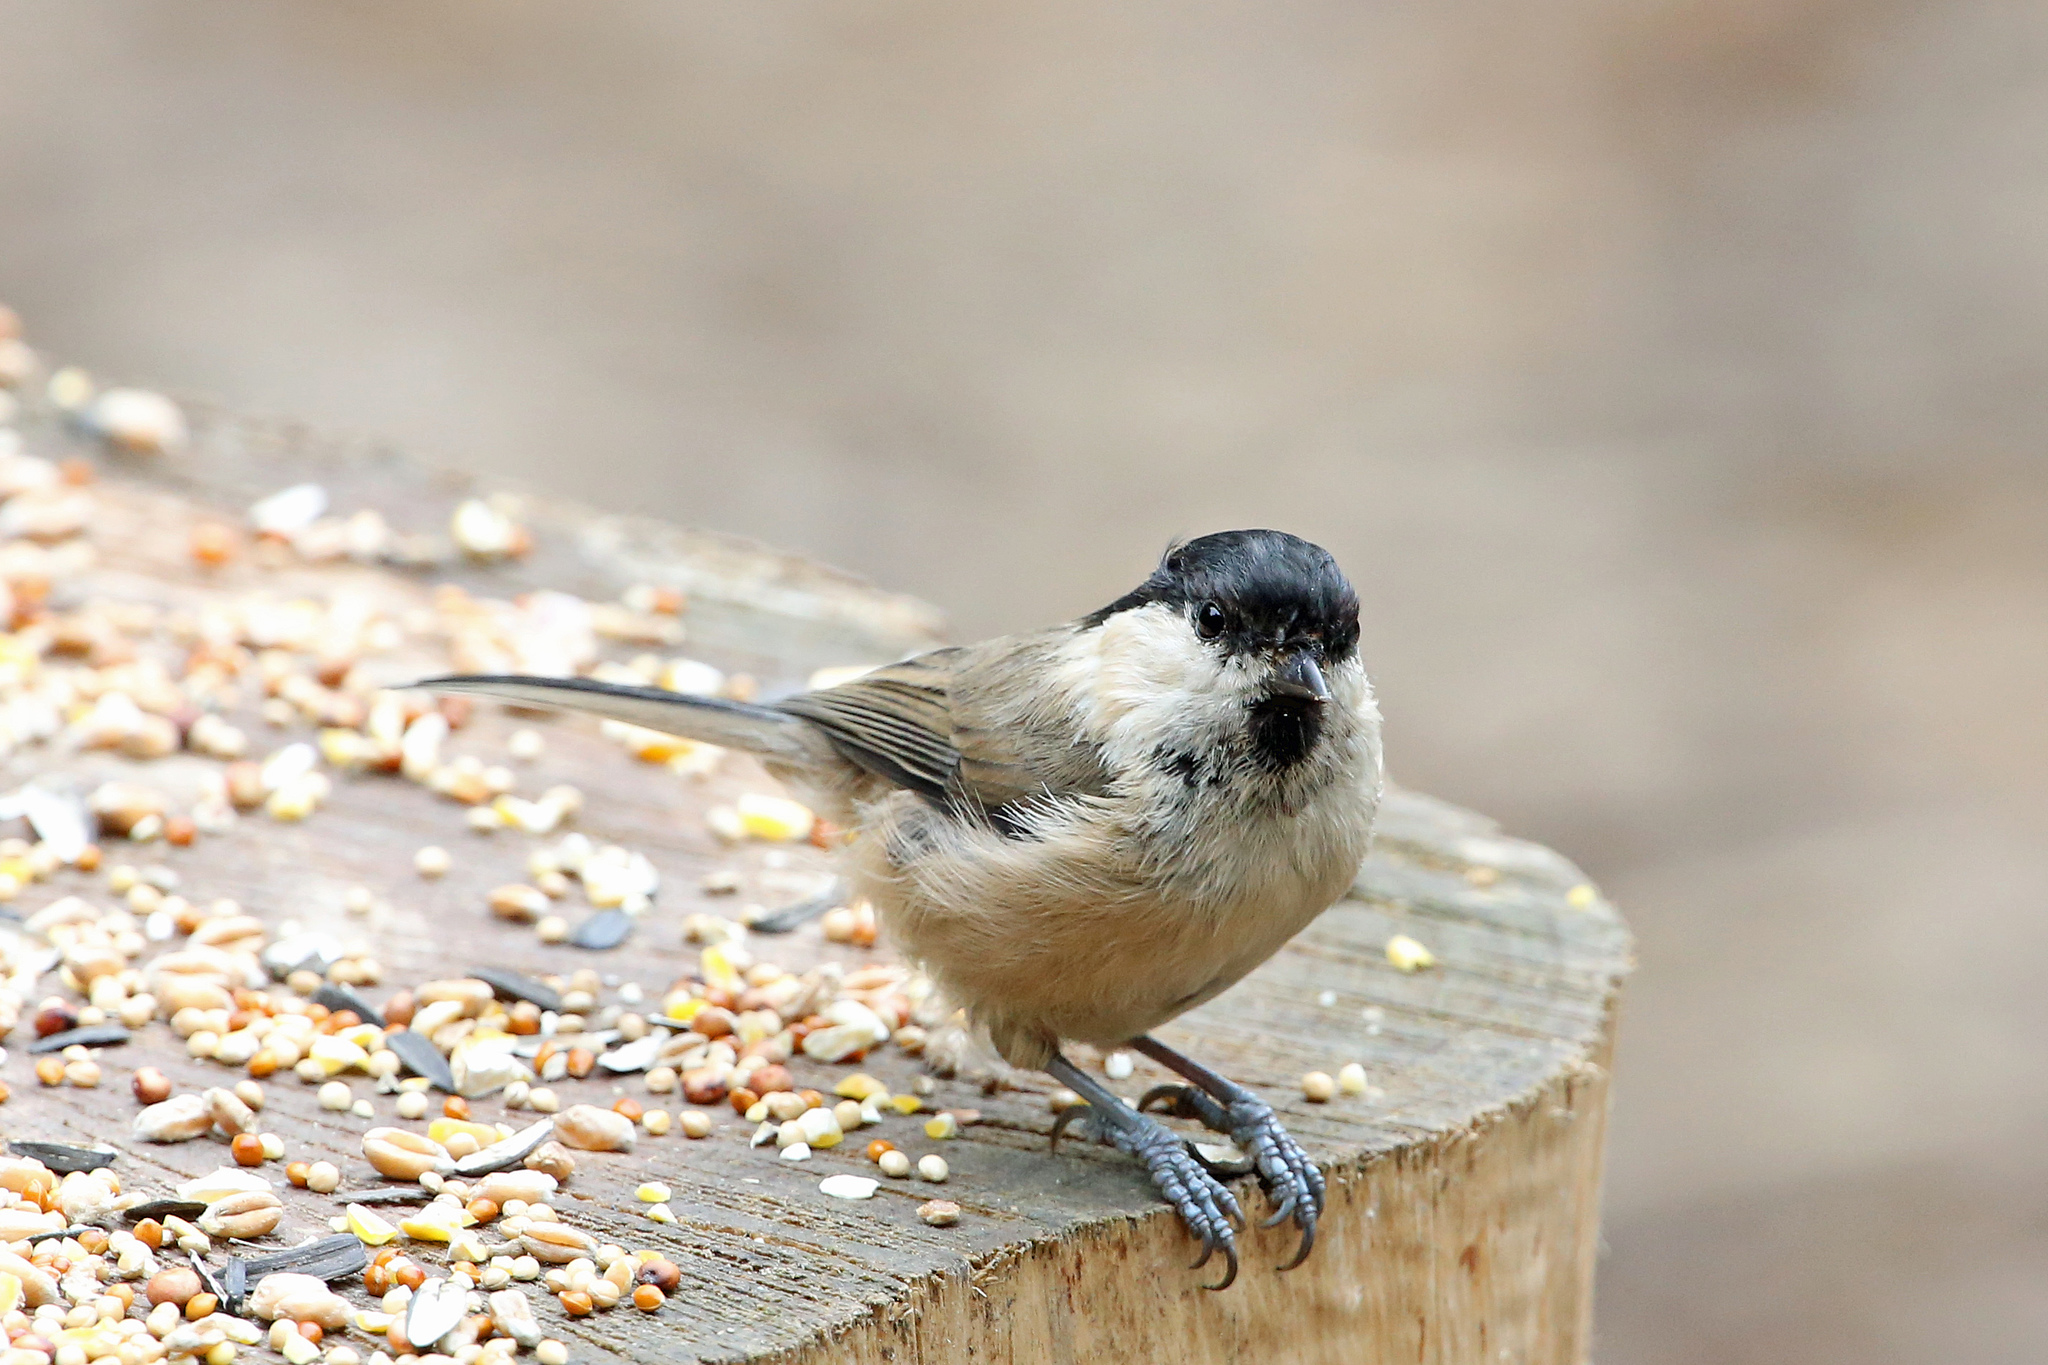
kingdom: Animalia
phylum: Chordata
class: Aves
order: Passeriformes
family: Paridae
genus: Poecile
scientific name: Poecile montanus
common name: Willow tit
